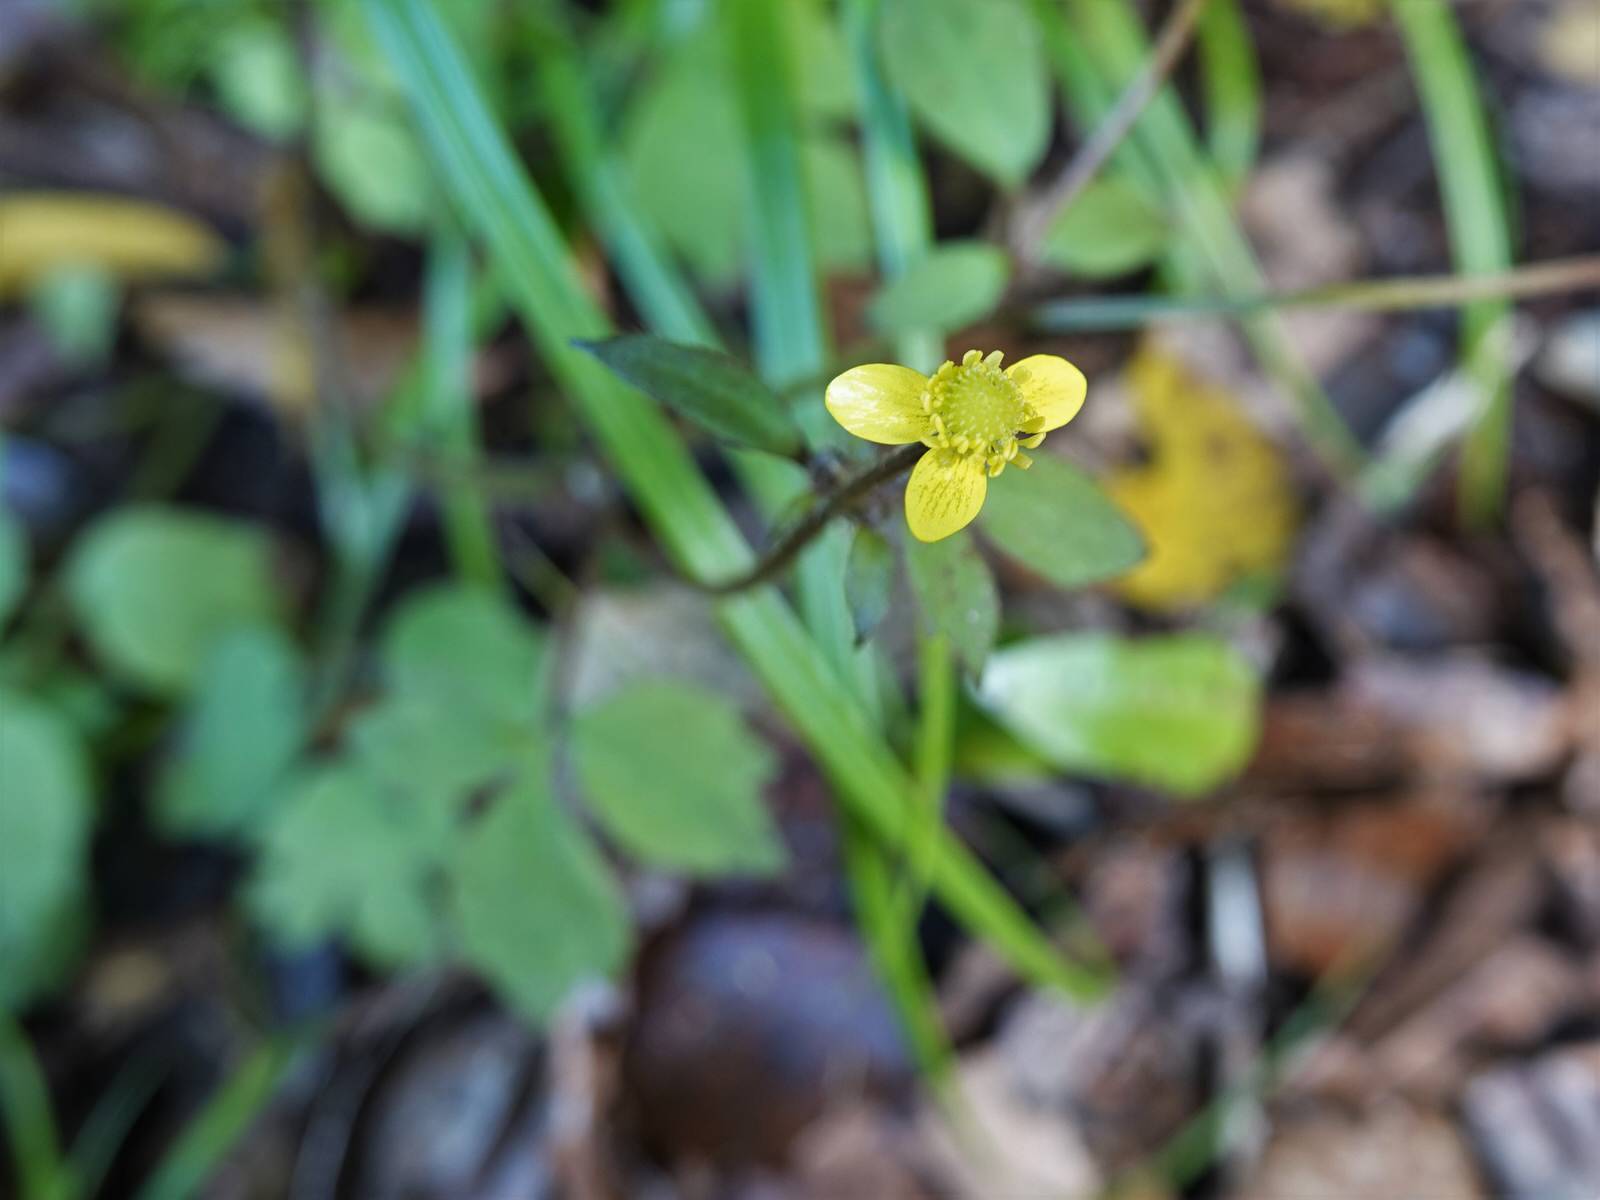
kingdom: Plantae
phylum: Tracheophyta
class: Magnoliopsida
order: Ranunculales
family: Ranunculaceae
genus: Ranunculus
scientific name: Ranunculus reflexus
